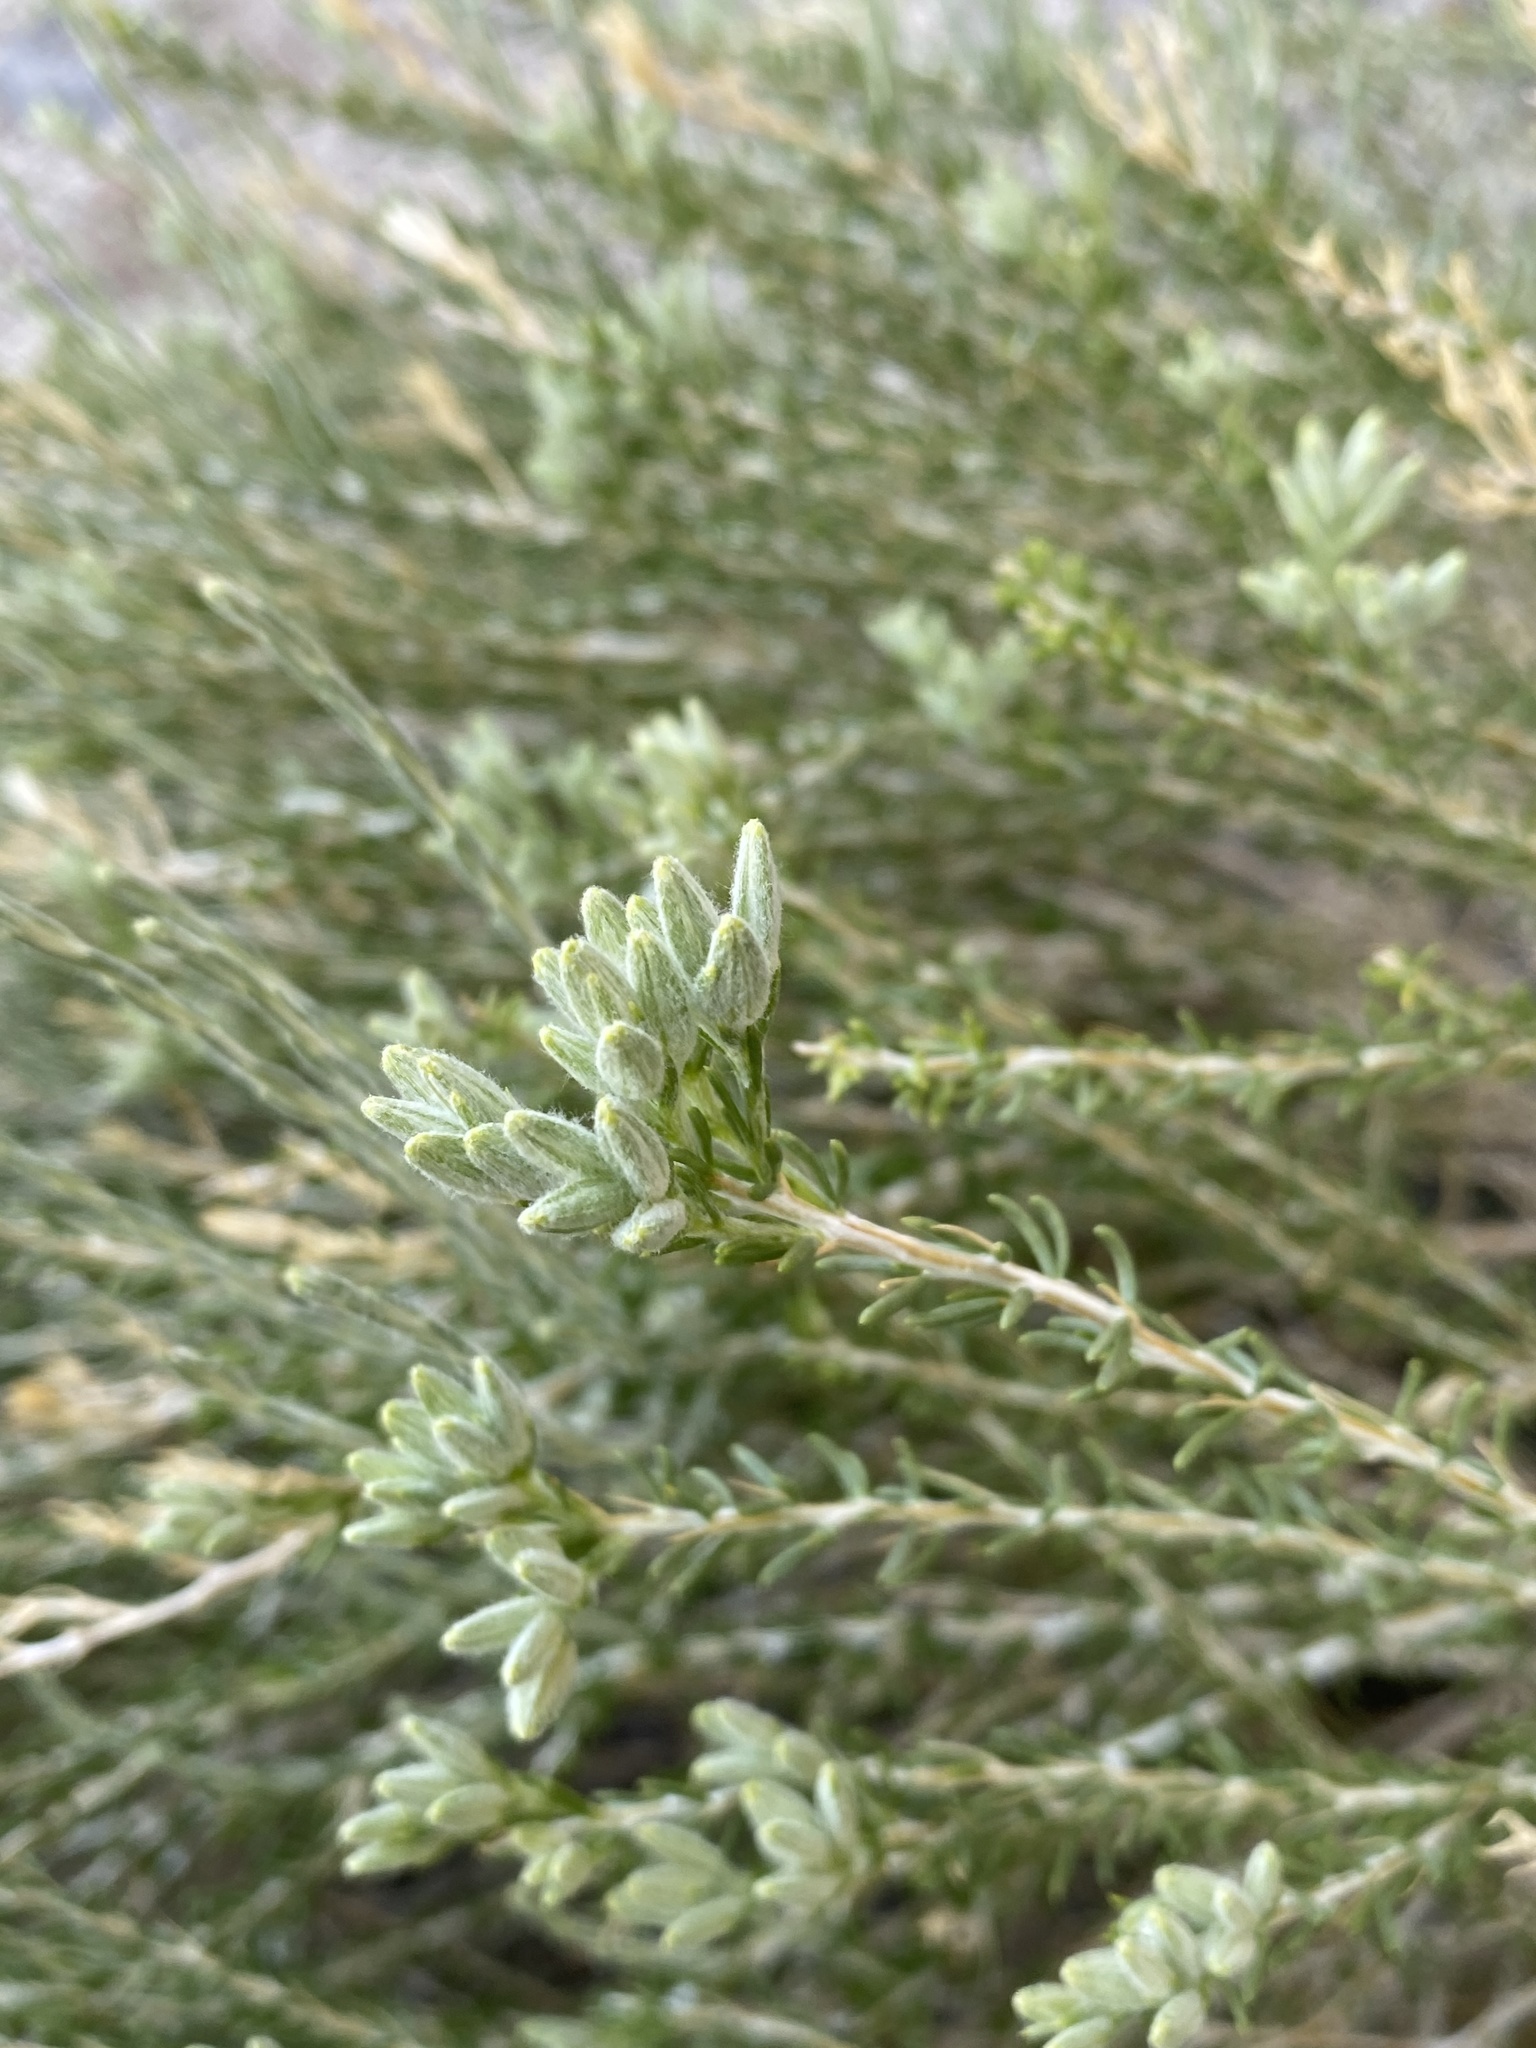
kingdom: Plantae
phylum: Tracheophyta
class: Magnoliopsida
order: Asterales
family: Asteraceae
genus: Tetradymia
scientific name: Tetradymia glabrata
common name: Smooth tetradymia
